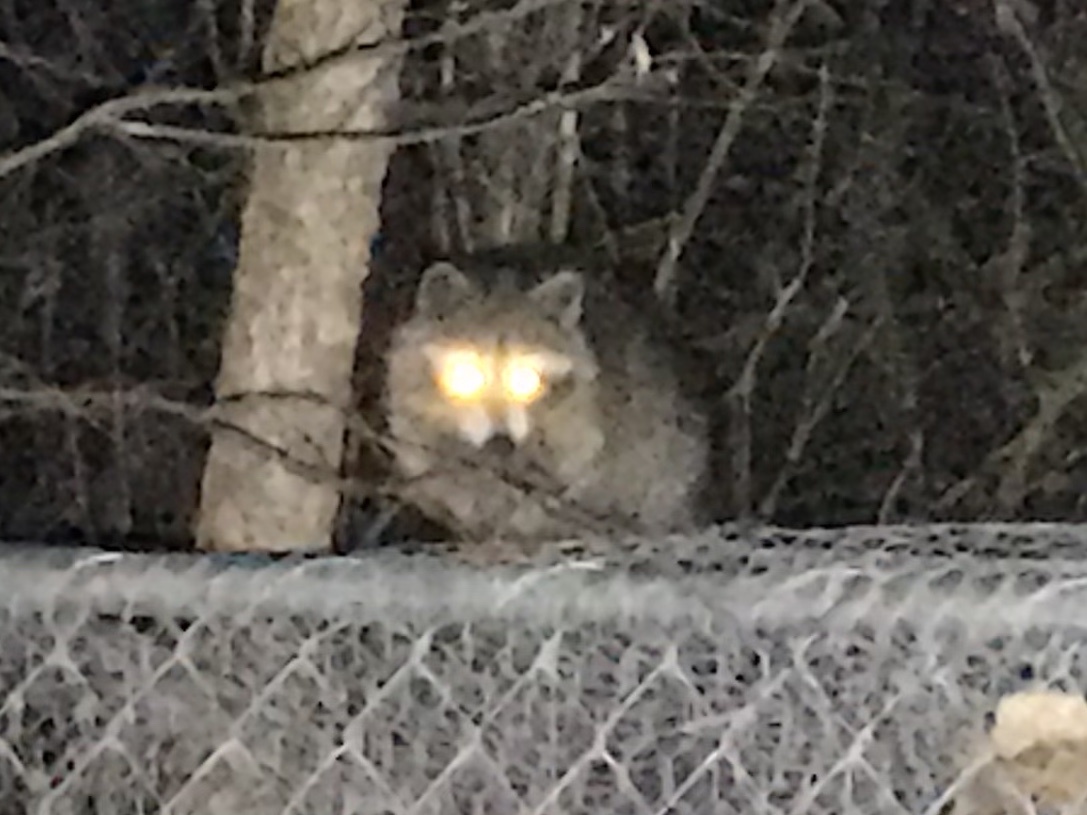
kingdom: Animalia
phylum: Chordata
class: Mammalia
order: Carnivora
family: Procyonidae
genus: Procyon
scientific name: Procyon lotor
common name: Raccoon
